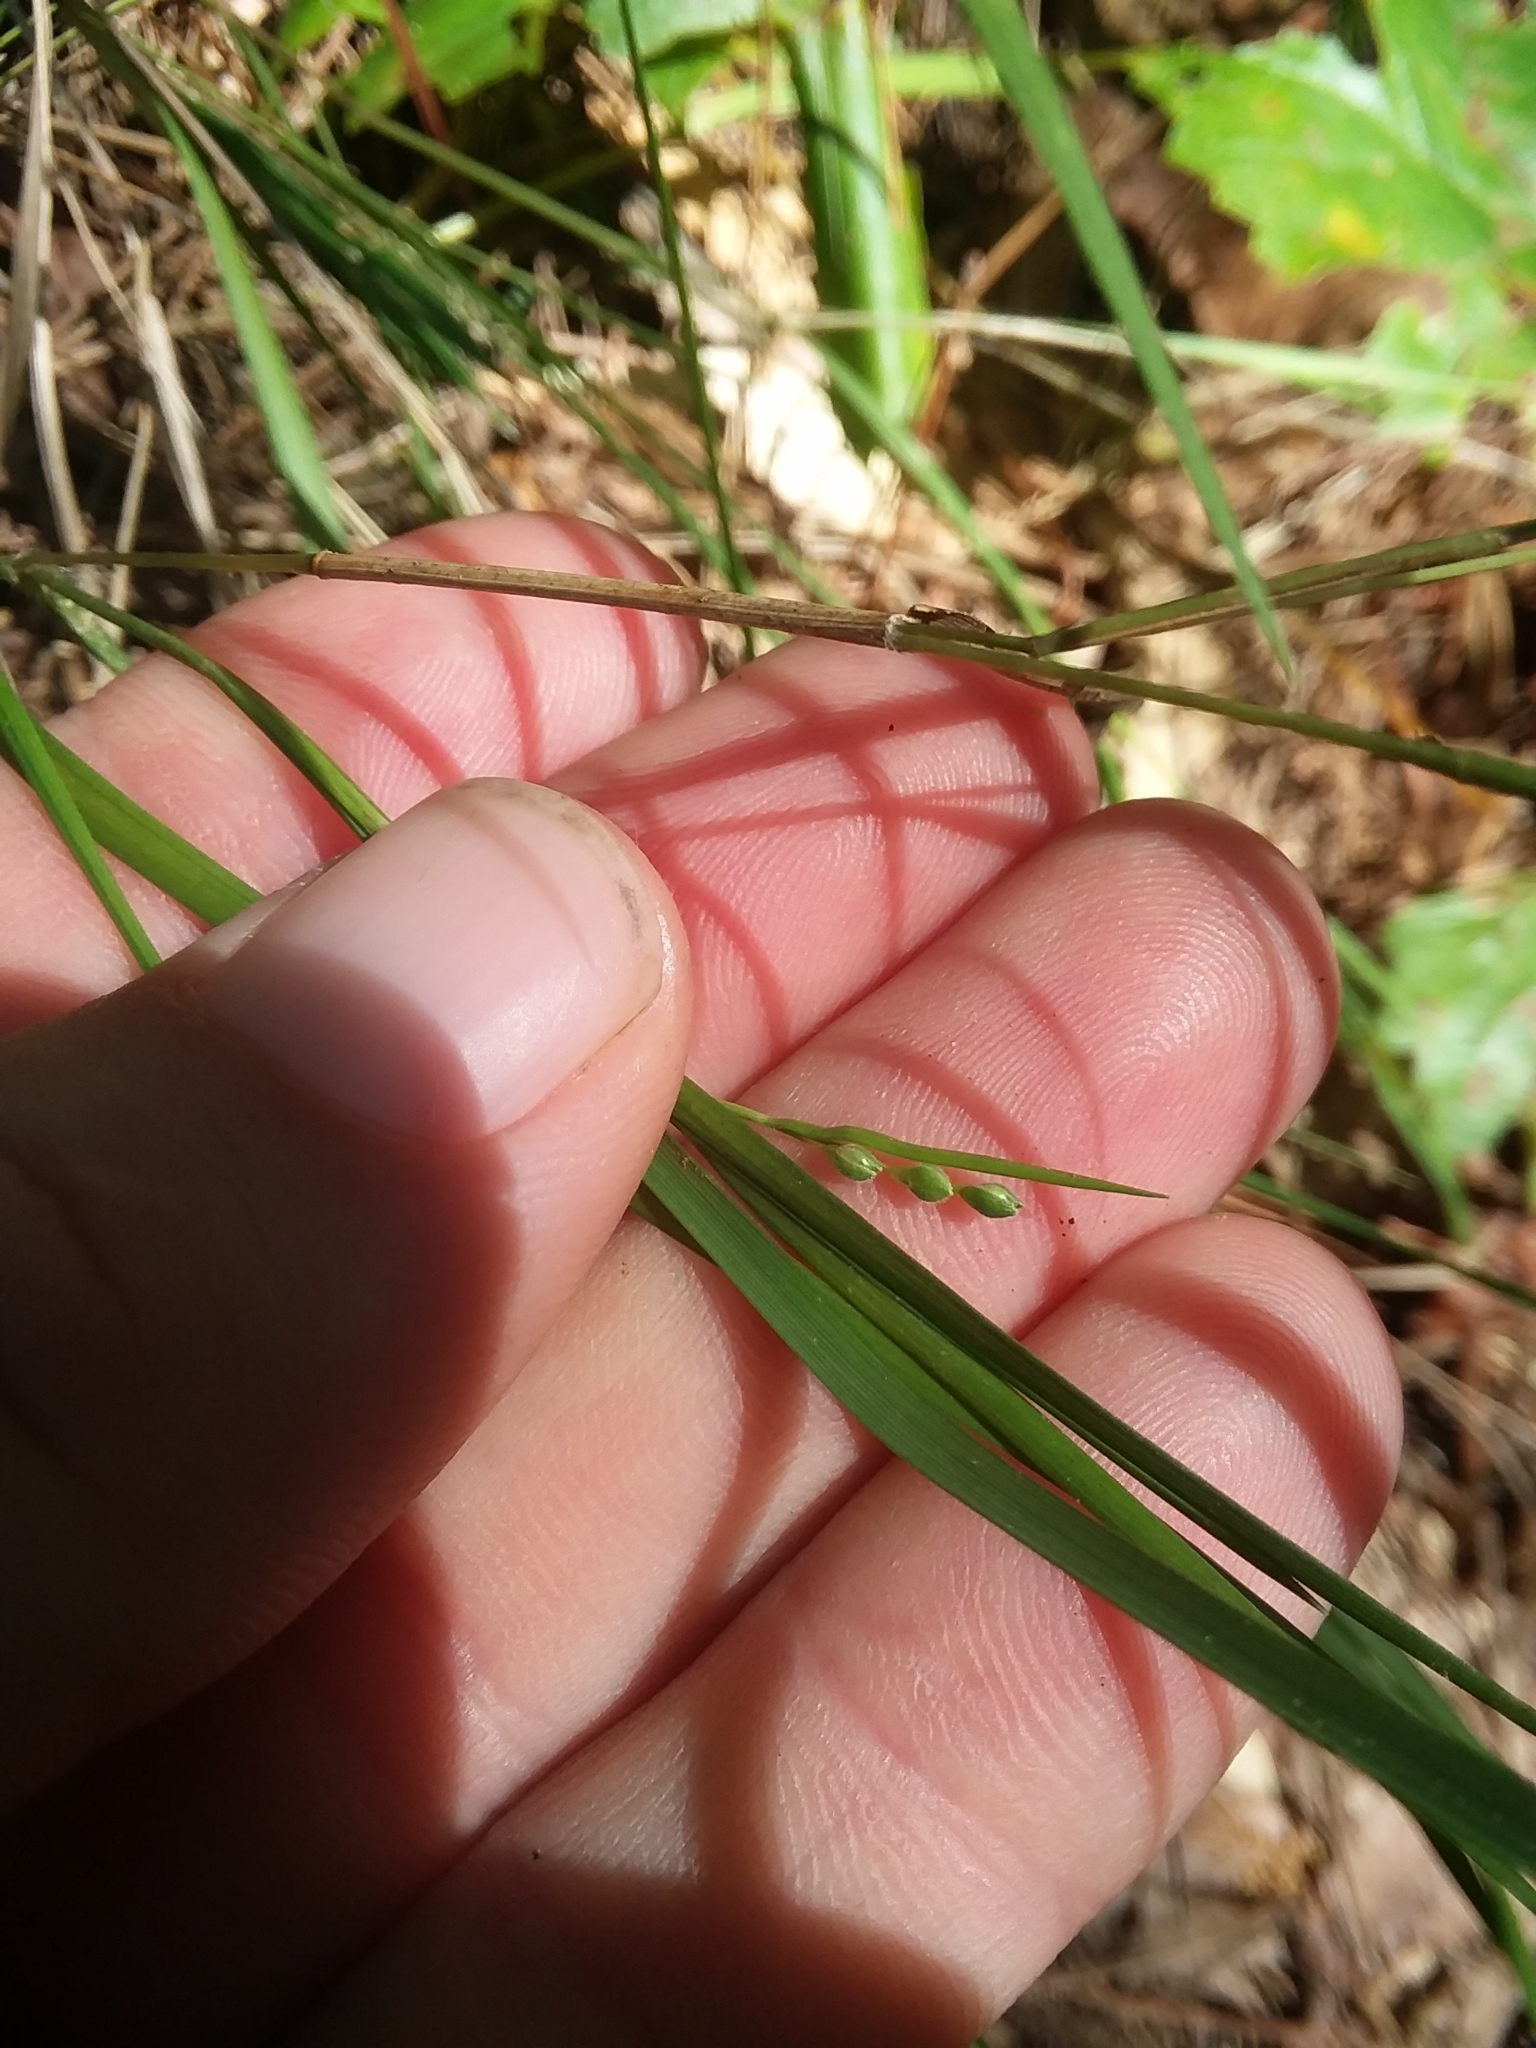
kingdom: Plantae
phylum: Tracheophyta
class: Liliopsida
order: Poales
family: Poaceae
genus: Dichanthelium
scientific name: Dichanthelium angustifolium
